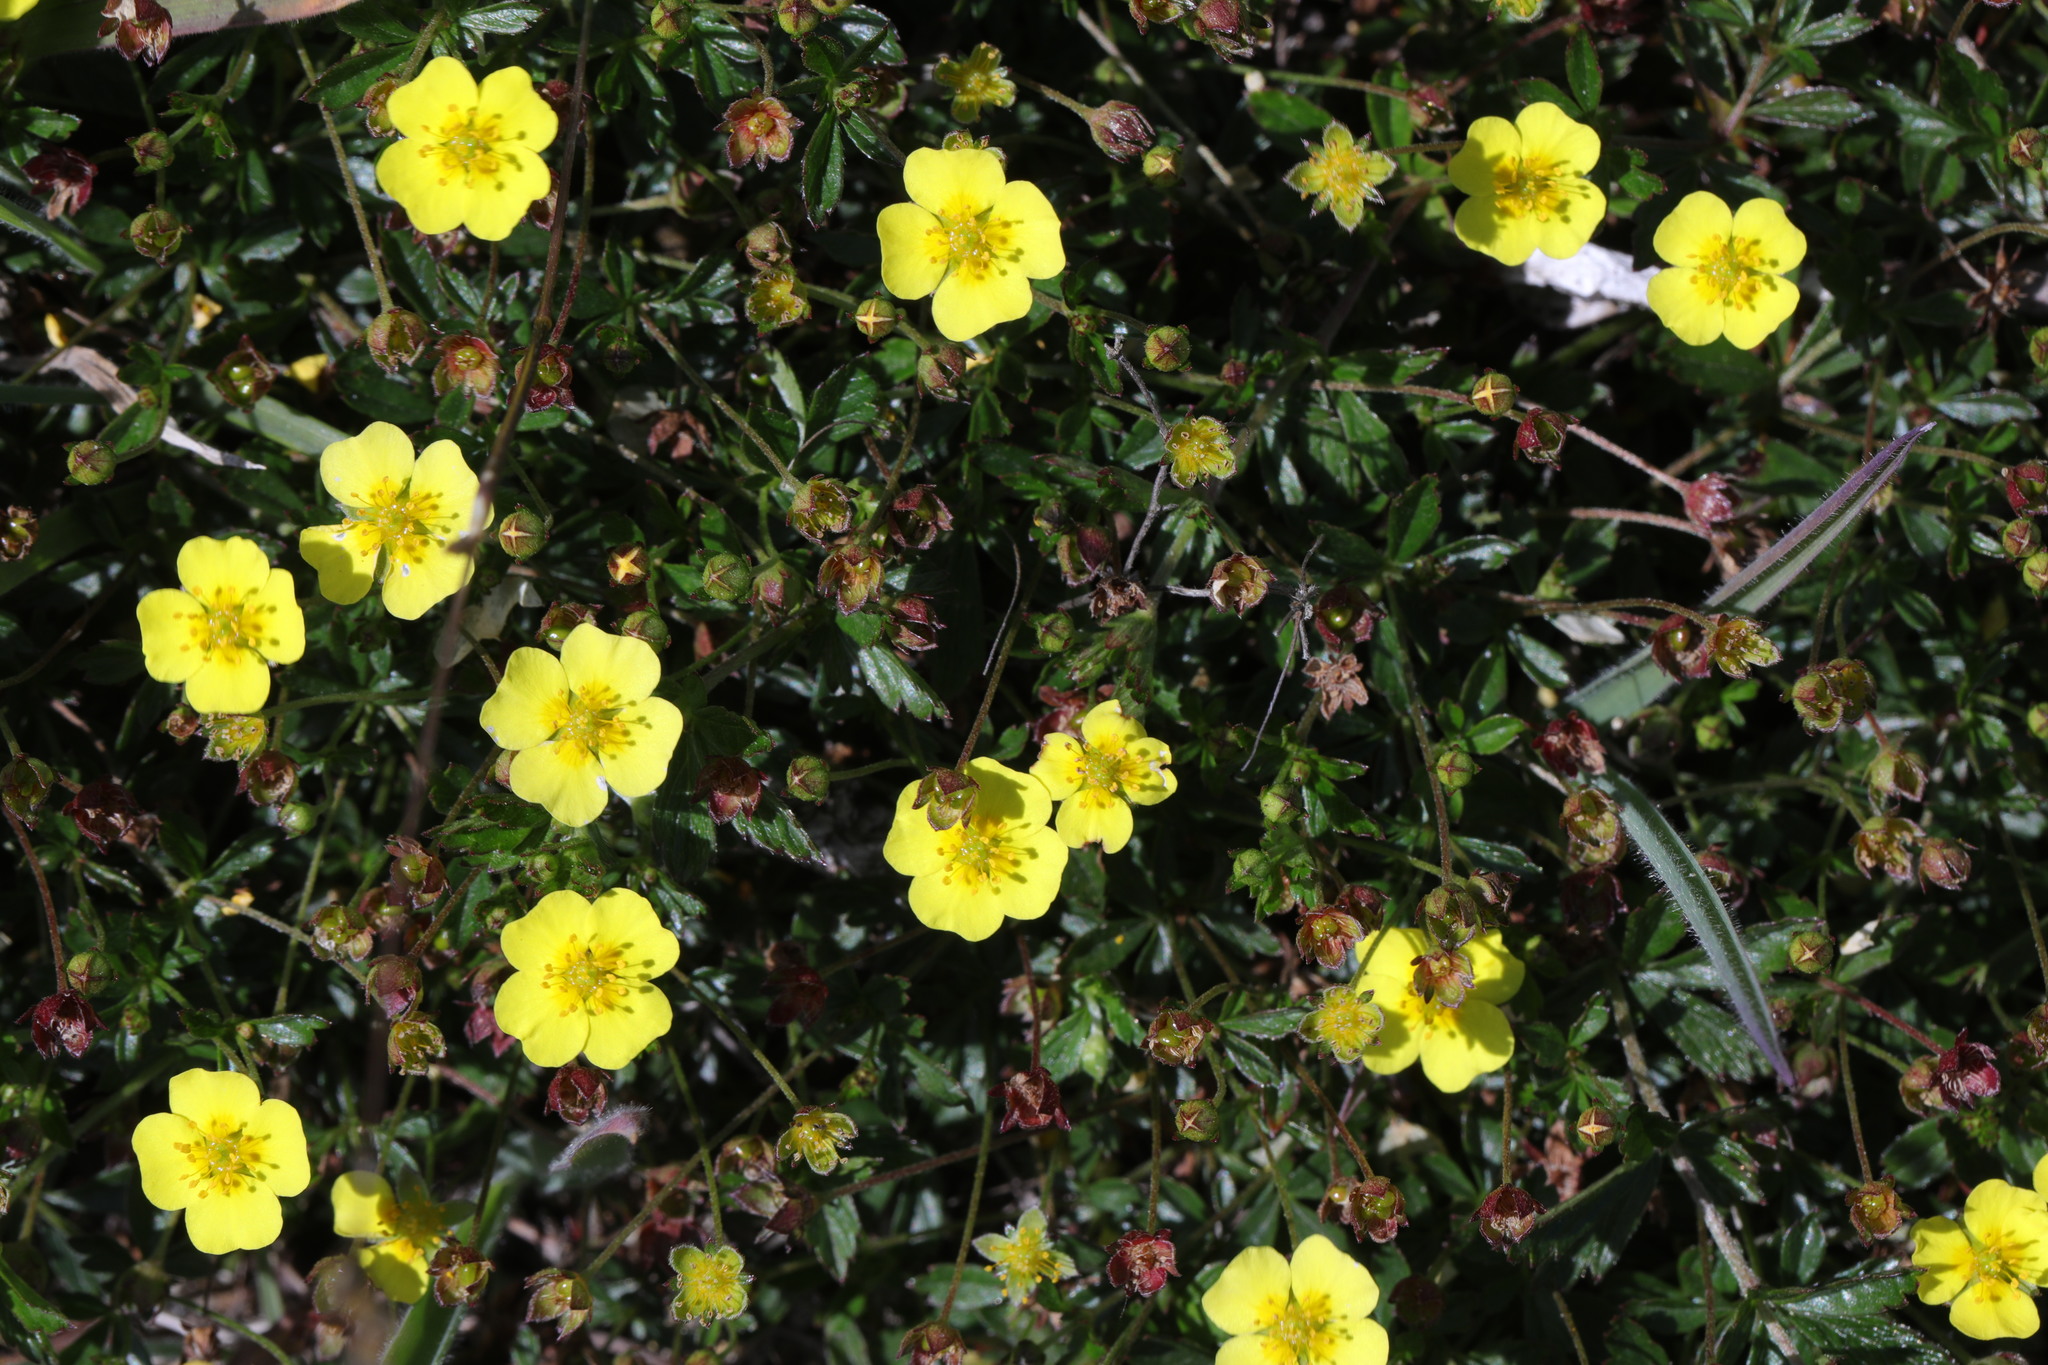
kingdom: Plantae
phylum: Tracheophyta
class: Magnoliopsida
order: Rosales
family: Rosaceae
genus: Potentilla
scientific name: Potentilla erecta
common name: Tormentil
